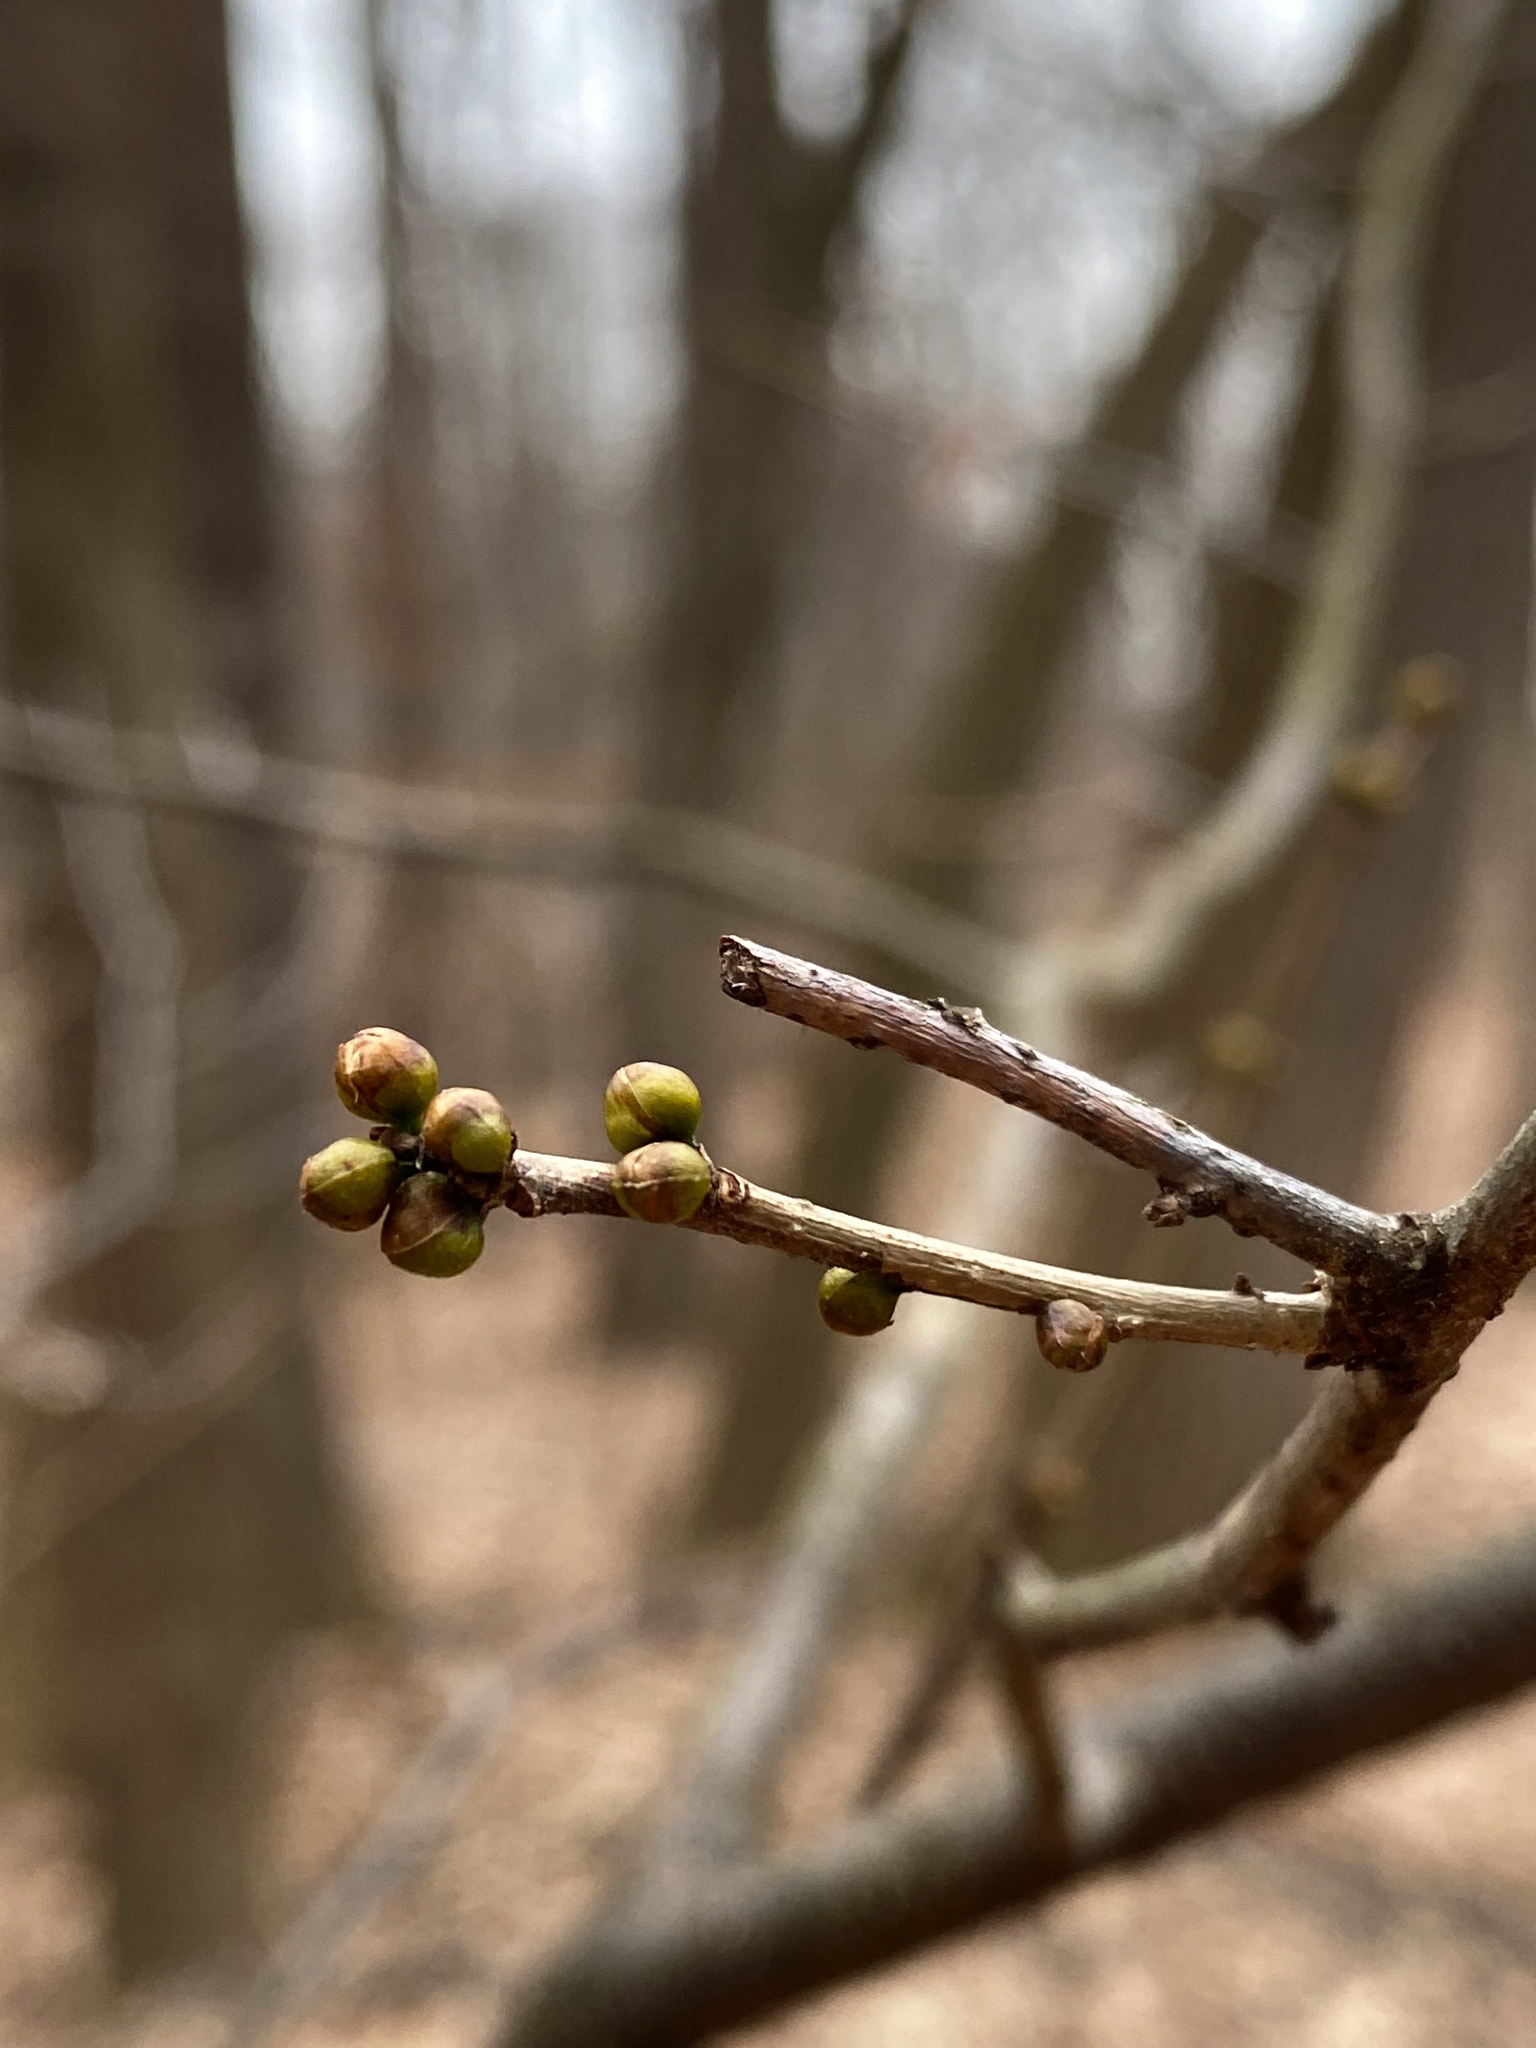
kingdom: Plantae
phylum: Tracheophyta
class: Magnoliopsida
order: Laurales
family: Lauraceae
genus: Lindera
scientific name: Lindera benzoin
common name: Spicebush
